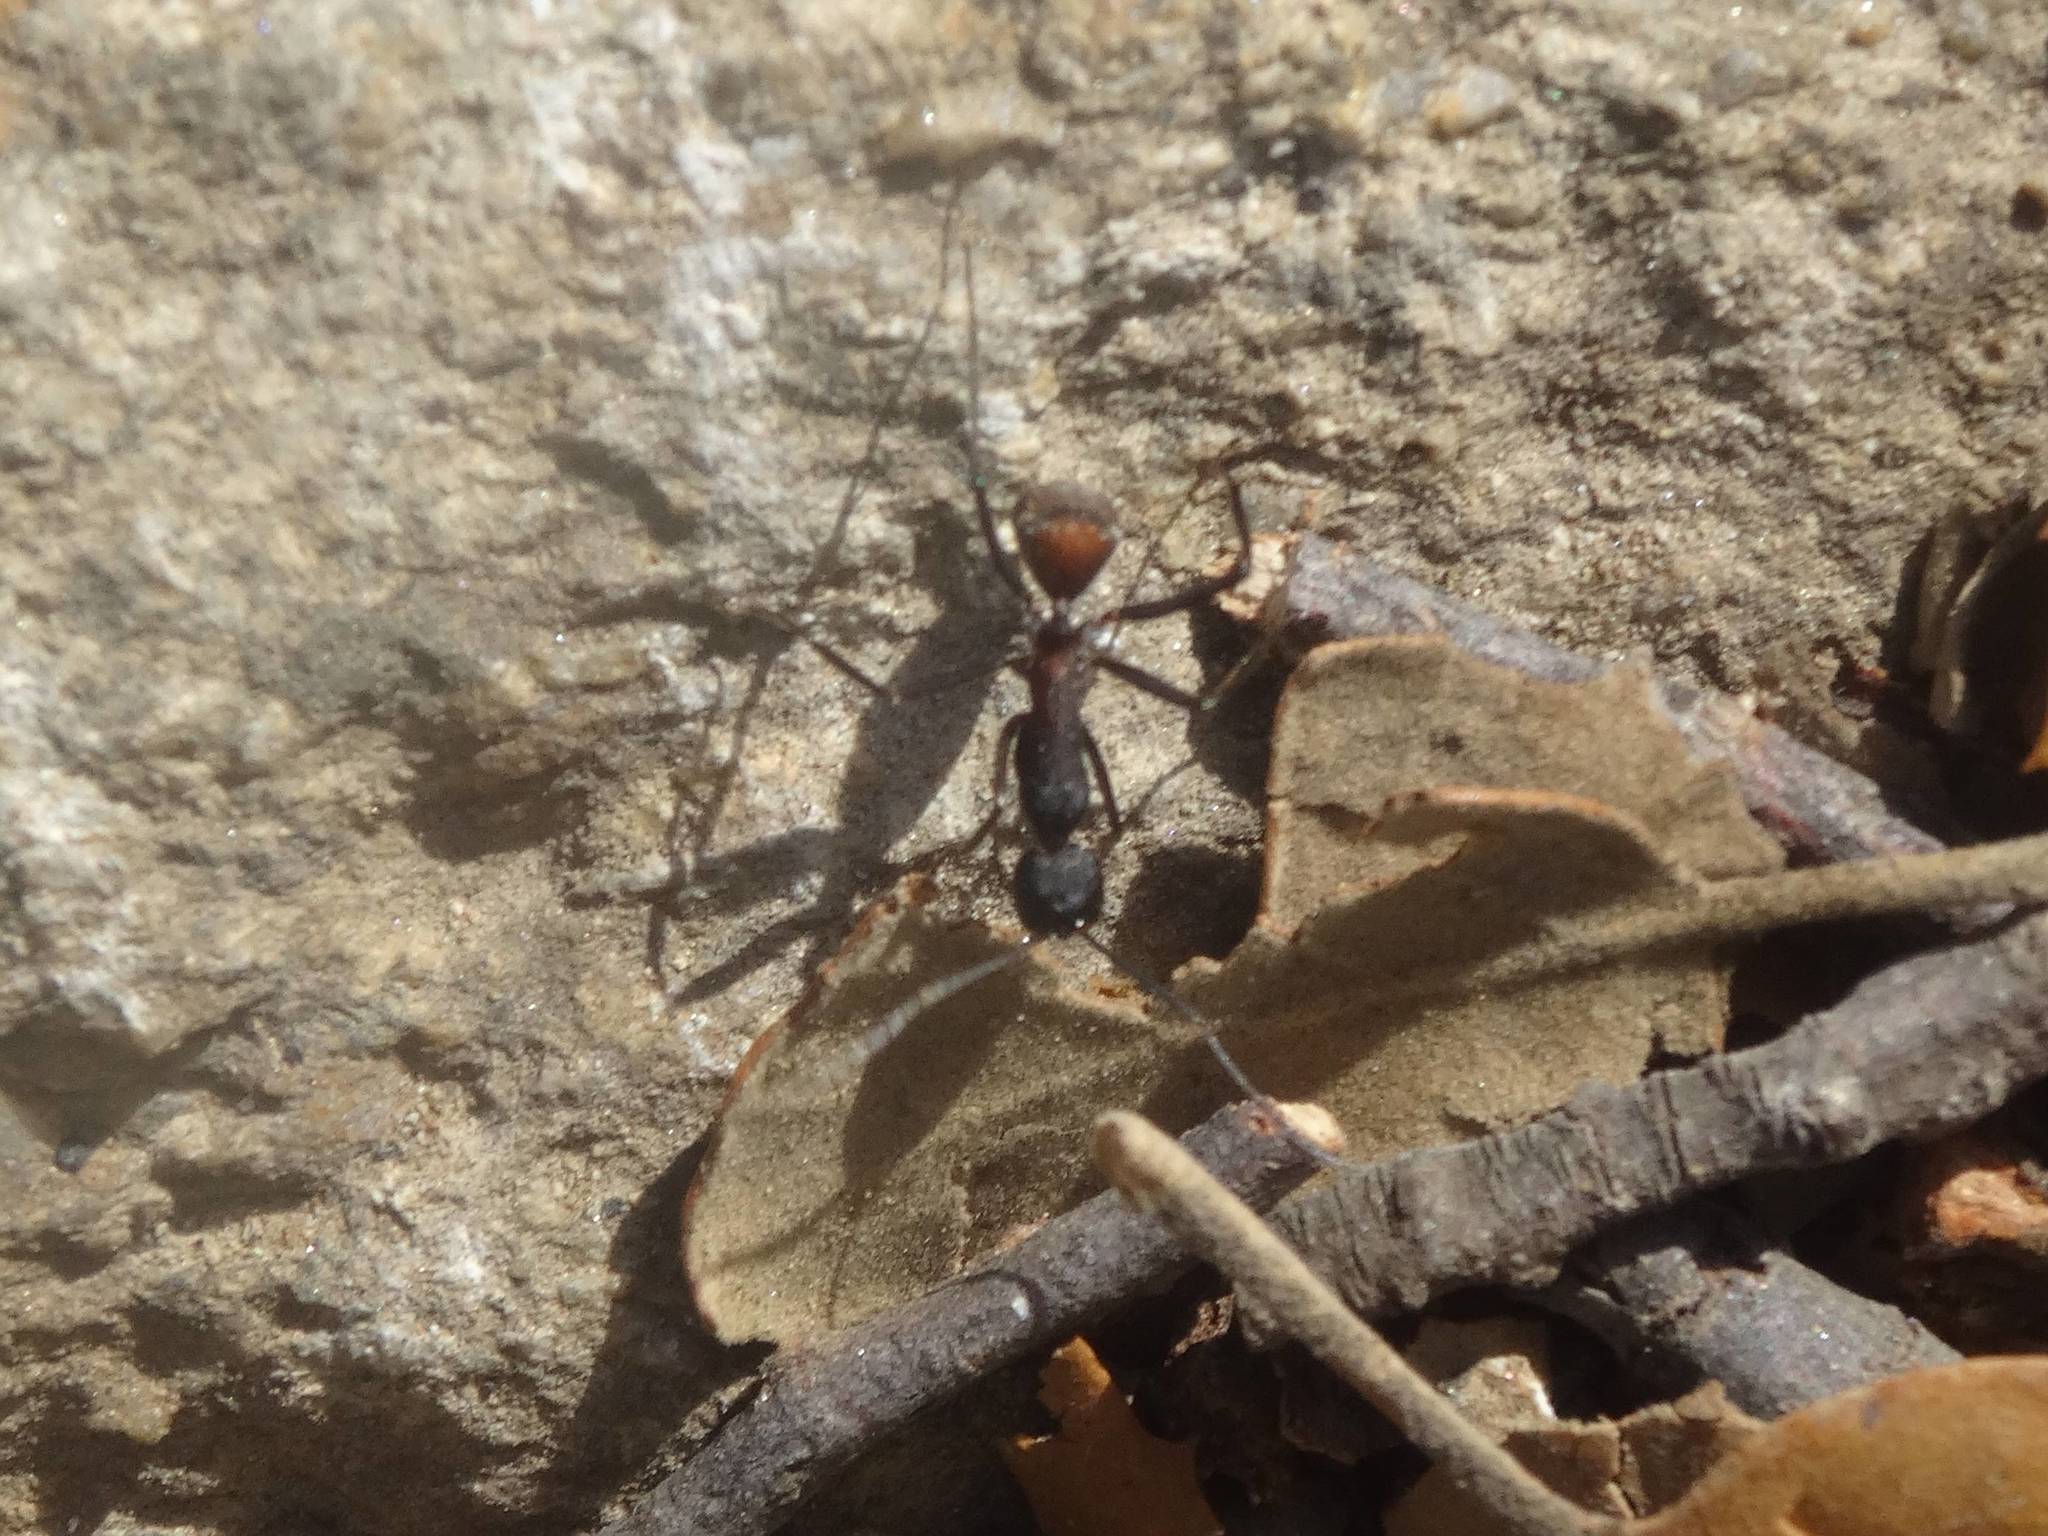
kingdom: Animalia
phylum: Arthropoda
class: Insecta
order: Hymenoptera
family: Formicidae
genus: Camponotus
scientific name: Camponotus cruentatus
